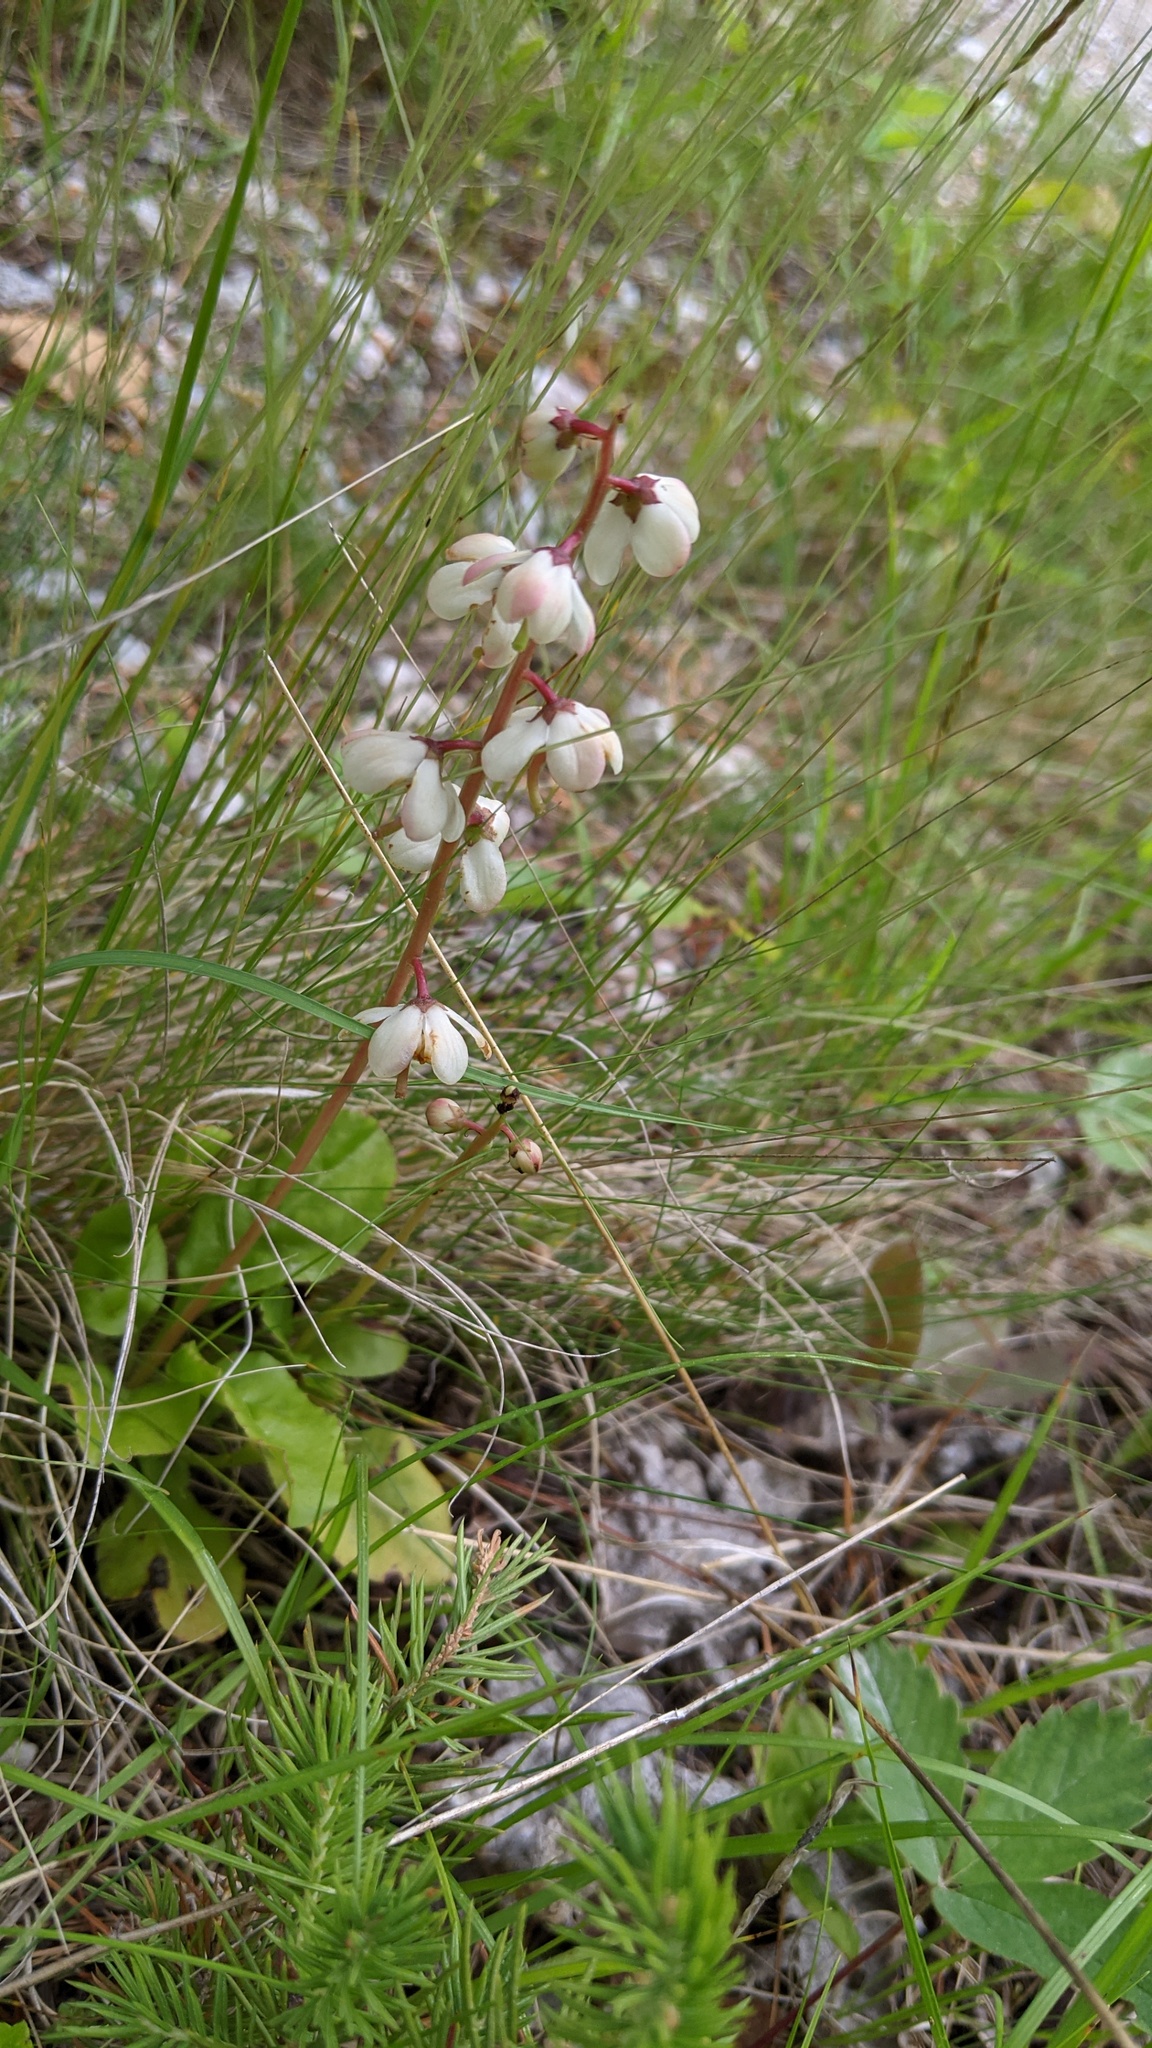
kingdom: Plantae
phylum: Tracheophyta
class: Magnoliopsida
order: Ericales
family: Ericaceae
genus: Pyrola
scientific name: Pyrola elliptica
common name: Shinleaf
